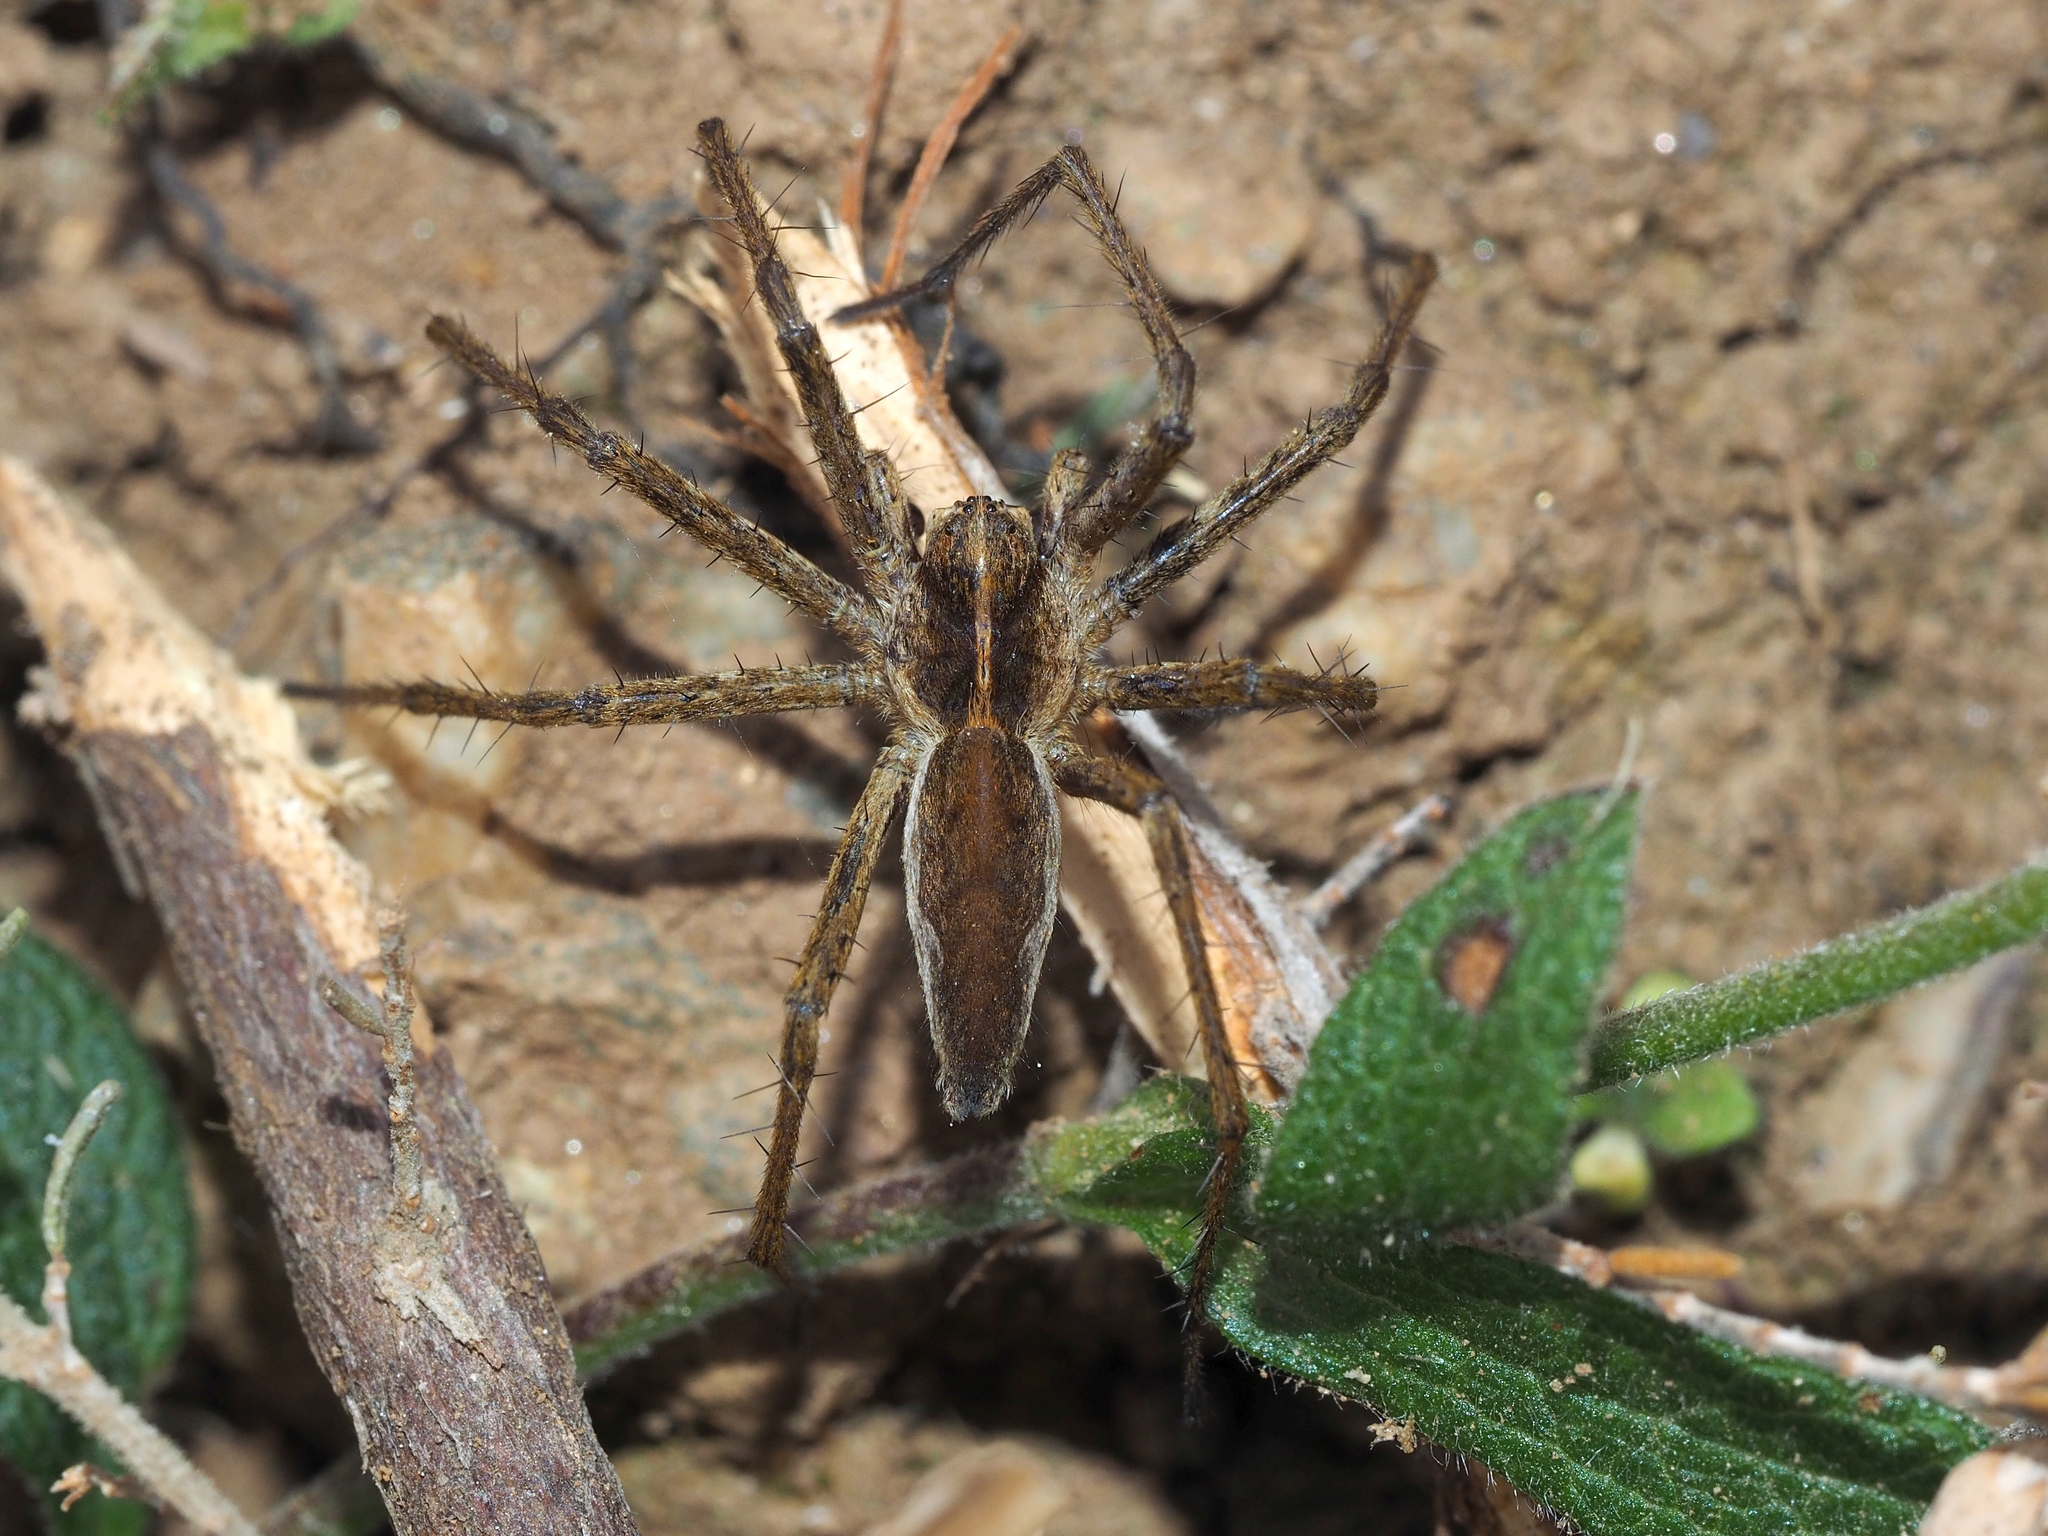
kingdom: Animalia
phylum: Arthropoda
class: Arachnida
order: Araneae
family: Pisauridae
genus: Pisaura
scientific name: Pisaura
